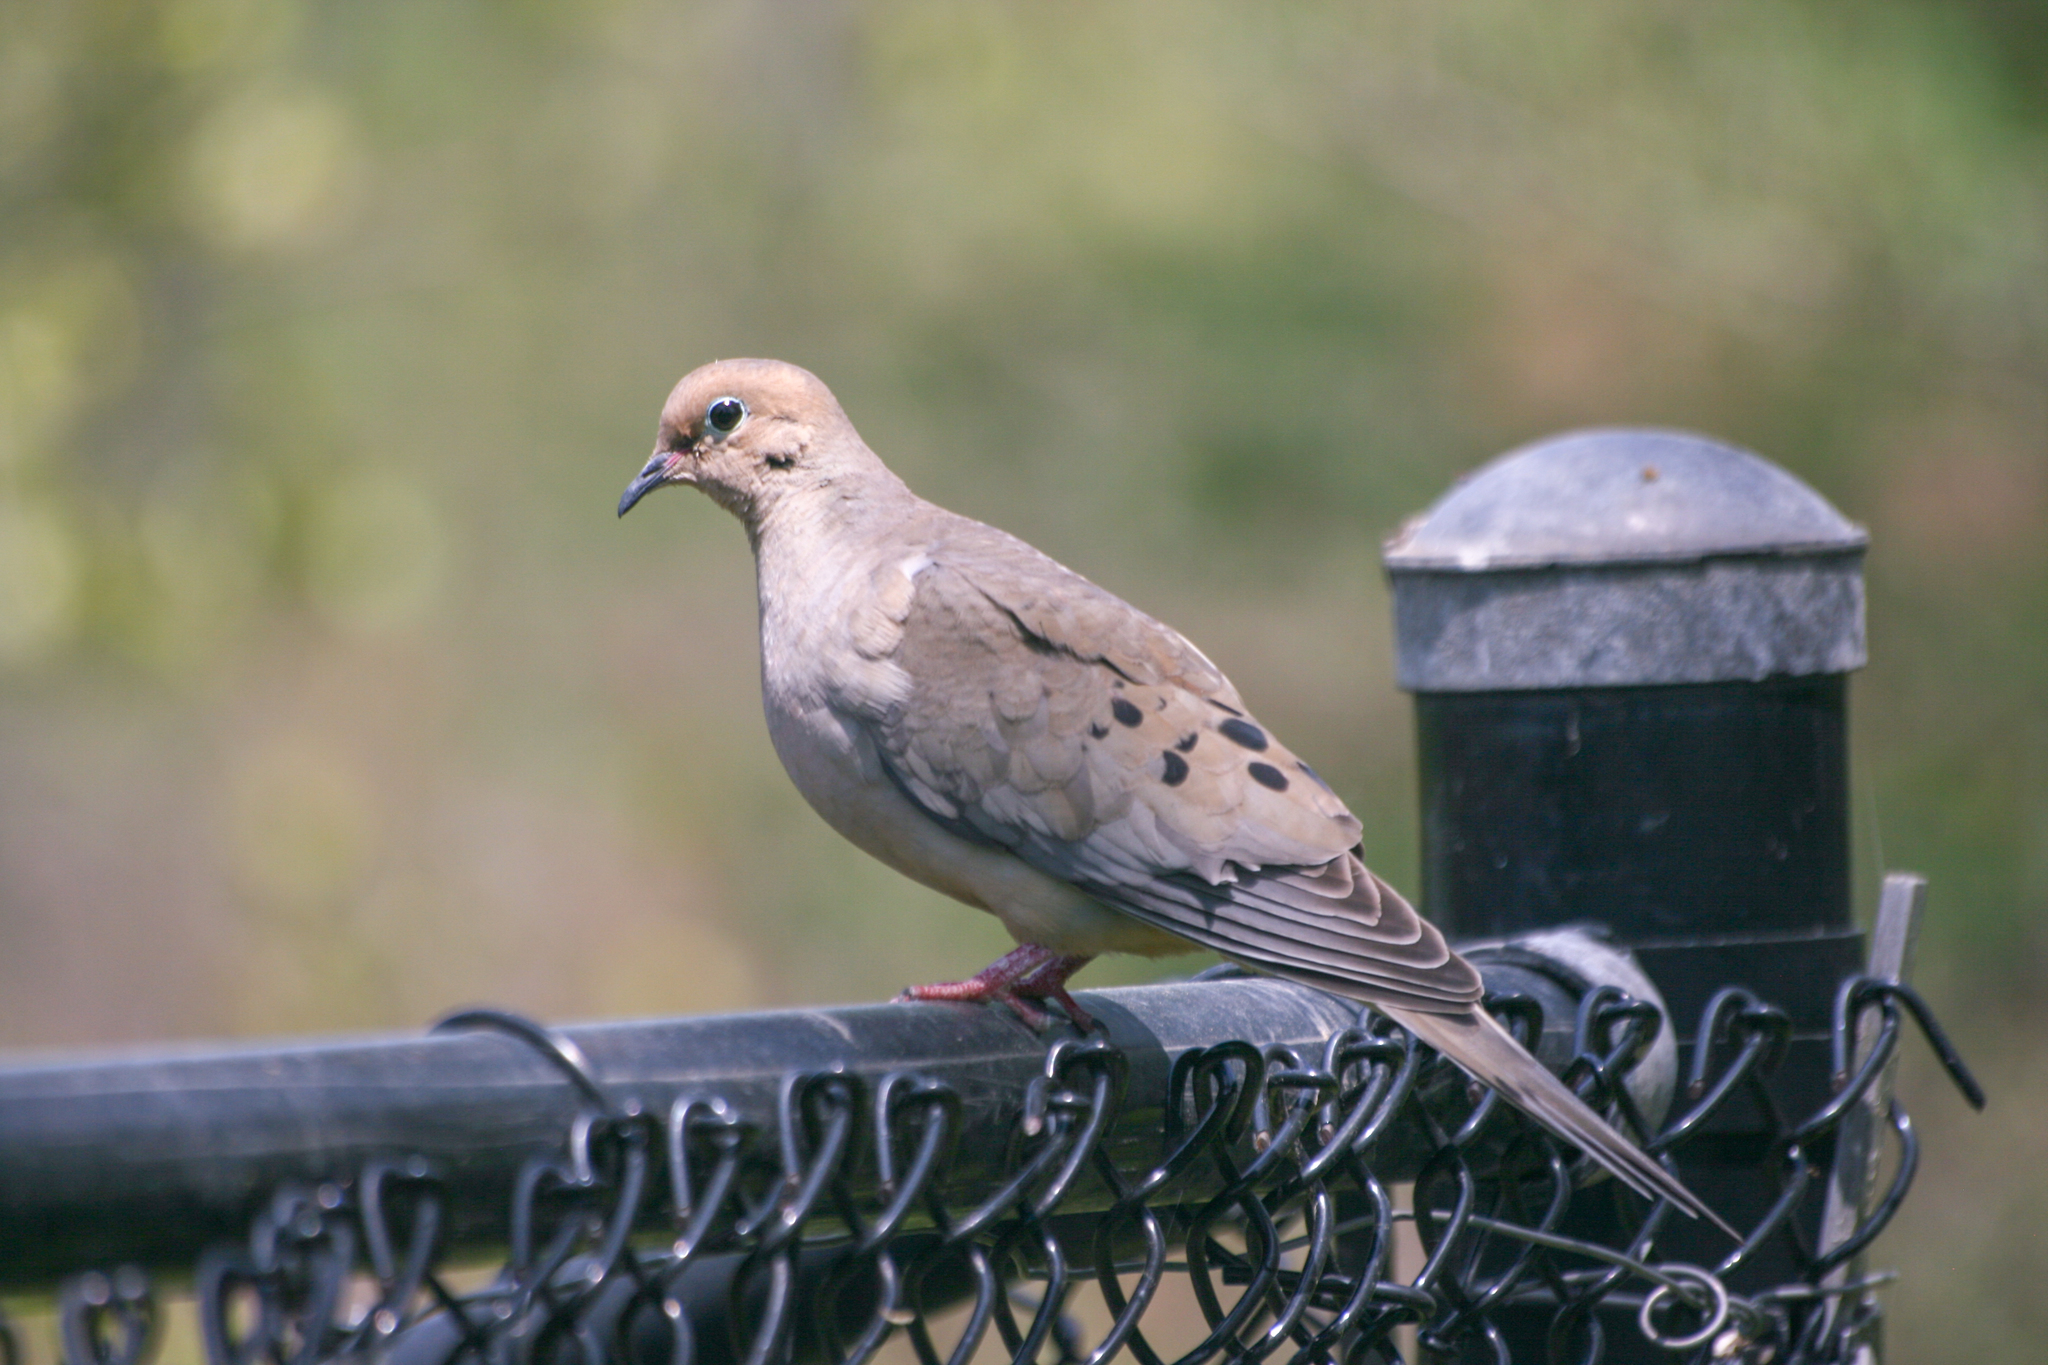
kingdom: Animalia
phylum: Chordata
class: Aves
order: Columbiformes
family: Columbidae
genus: Zenaida
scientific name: Zenaida macroura
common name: Mourning dove
